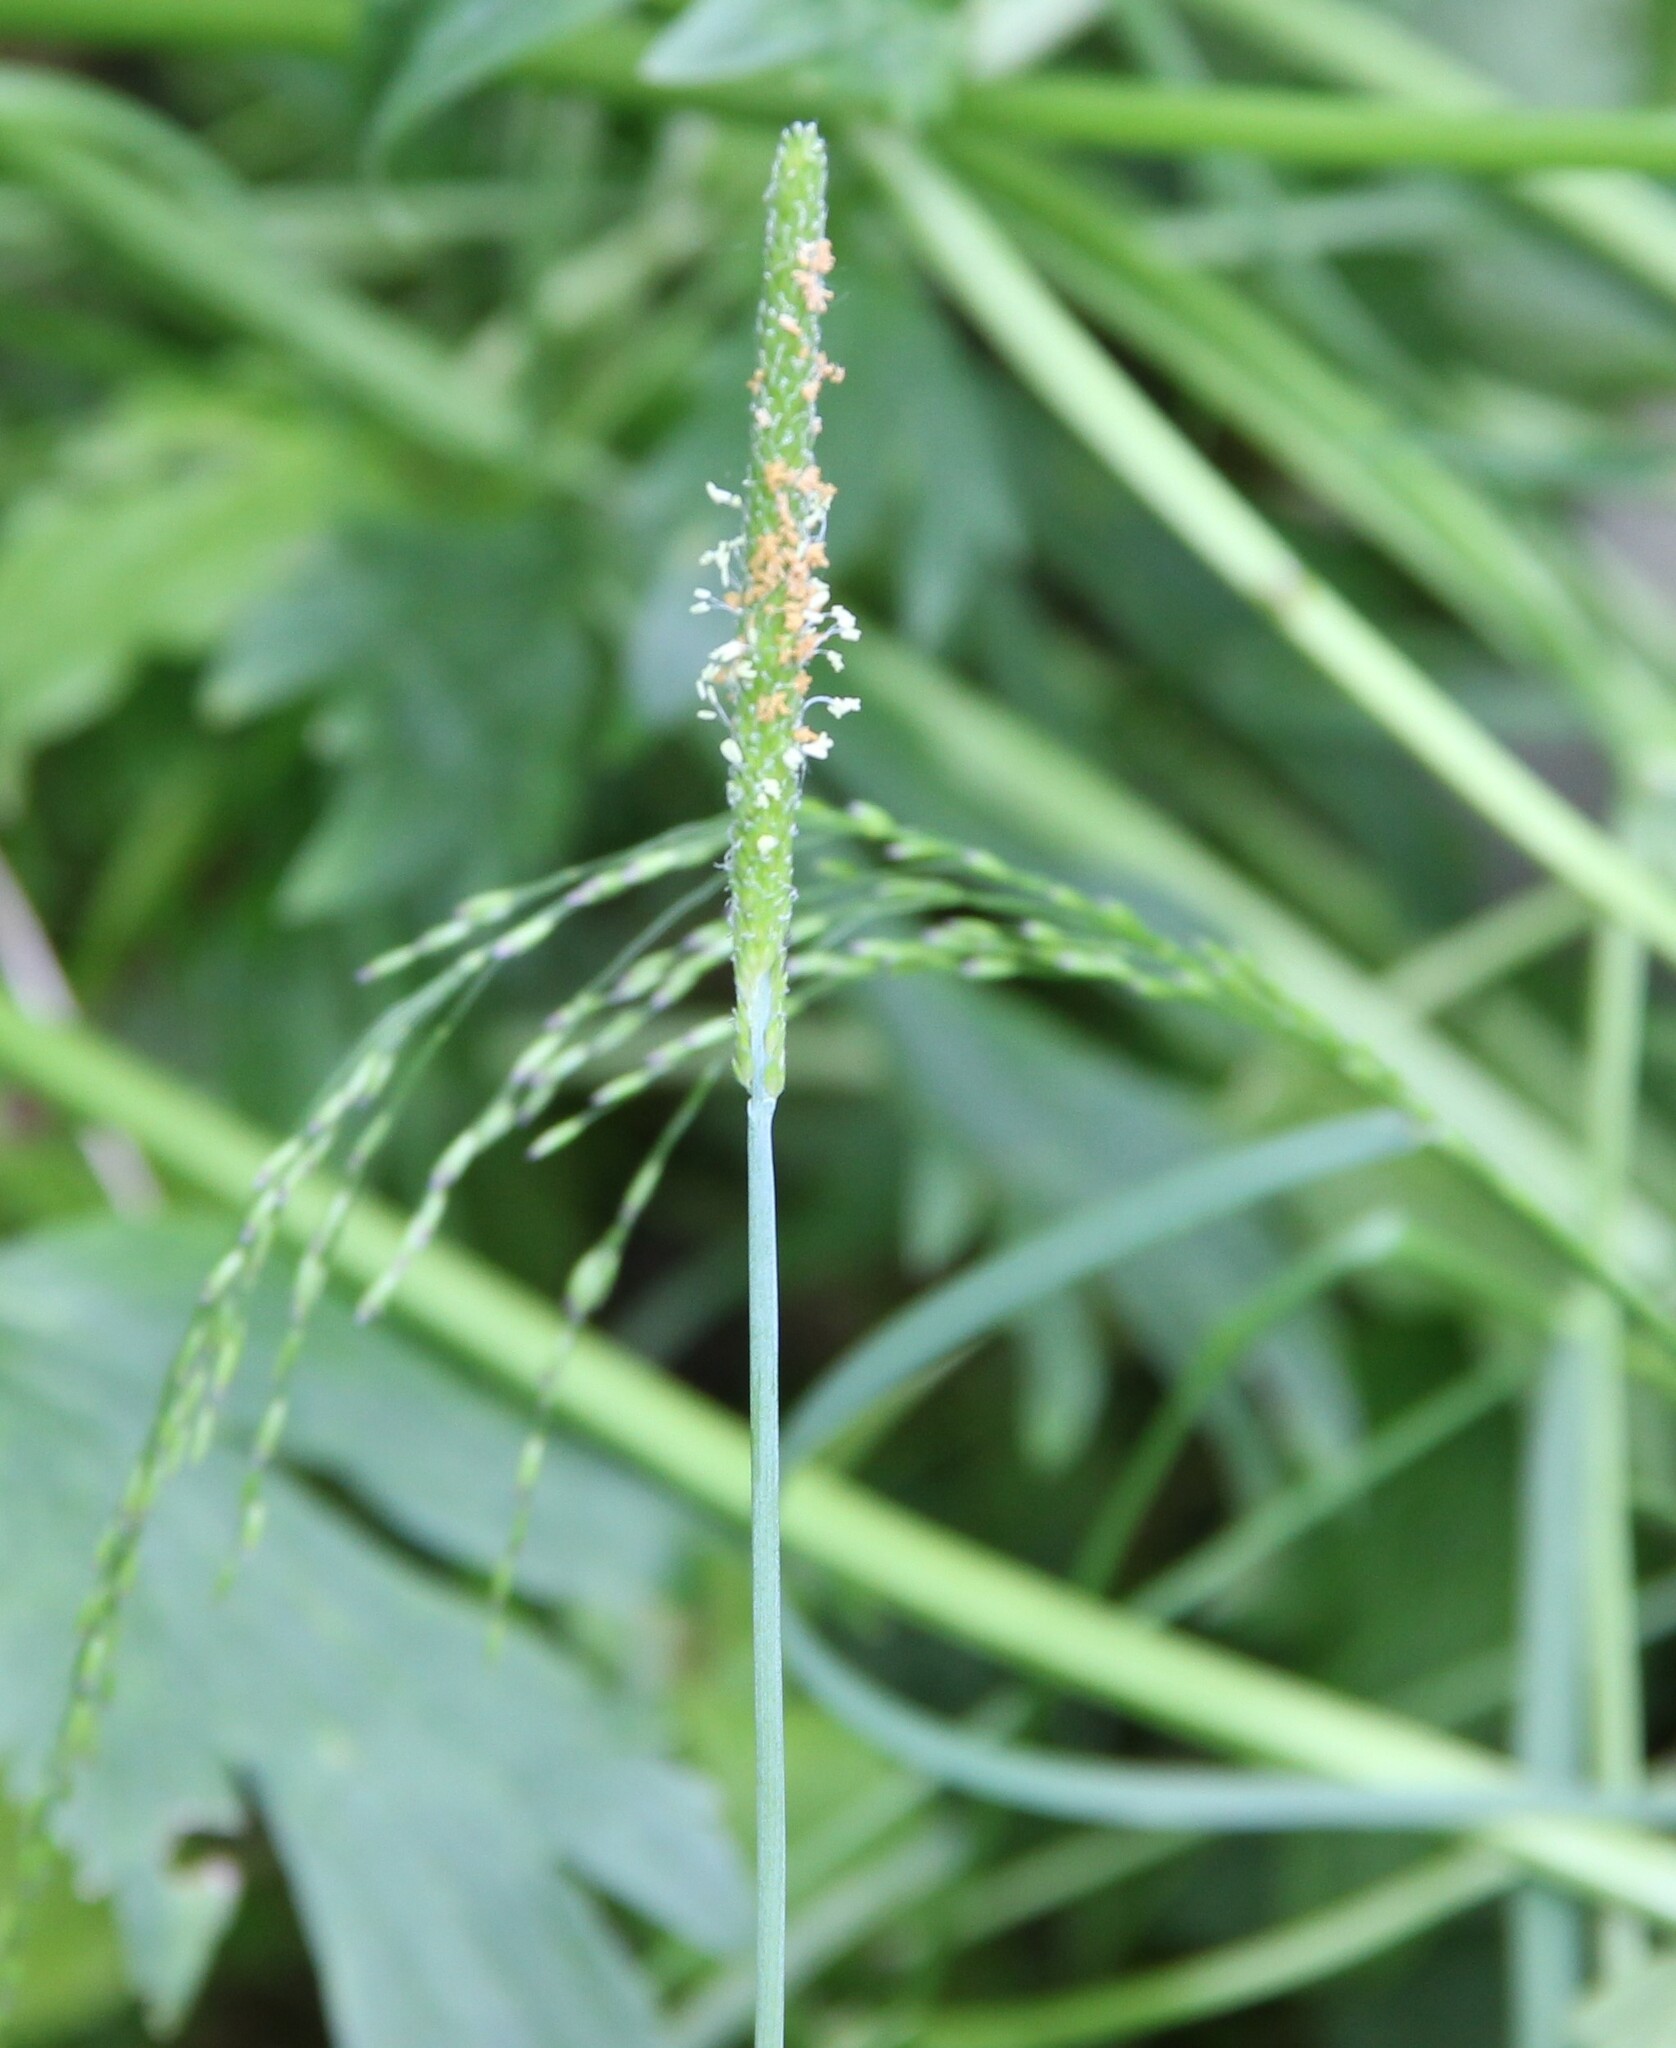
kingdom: Plantae
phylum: Tracheophyta
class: Liliopsida
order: Poales
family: Poaceae
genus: Alopecurus
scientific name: Alopecurus aequalis
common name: Orange foxtail
